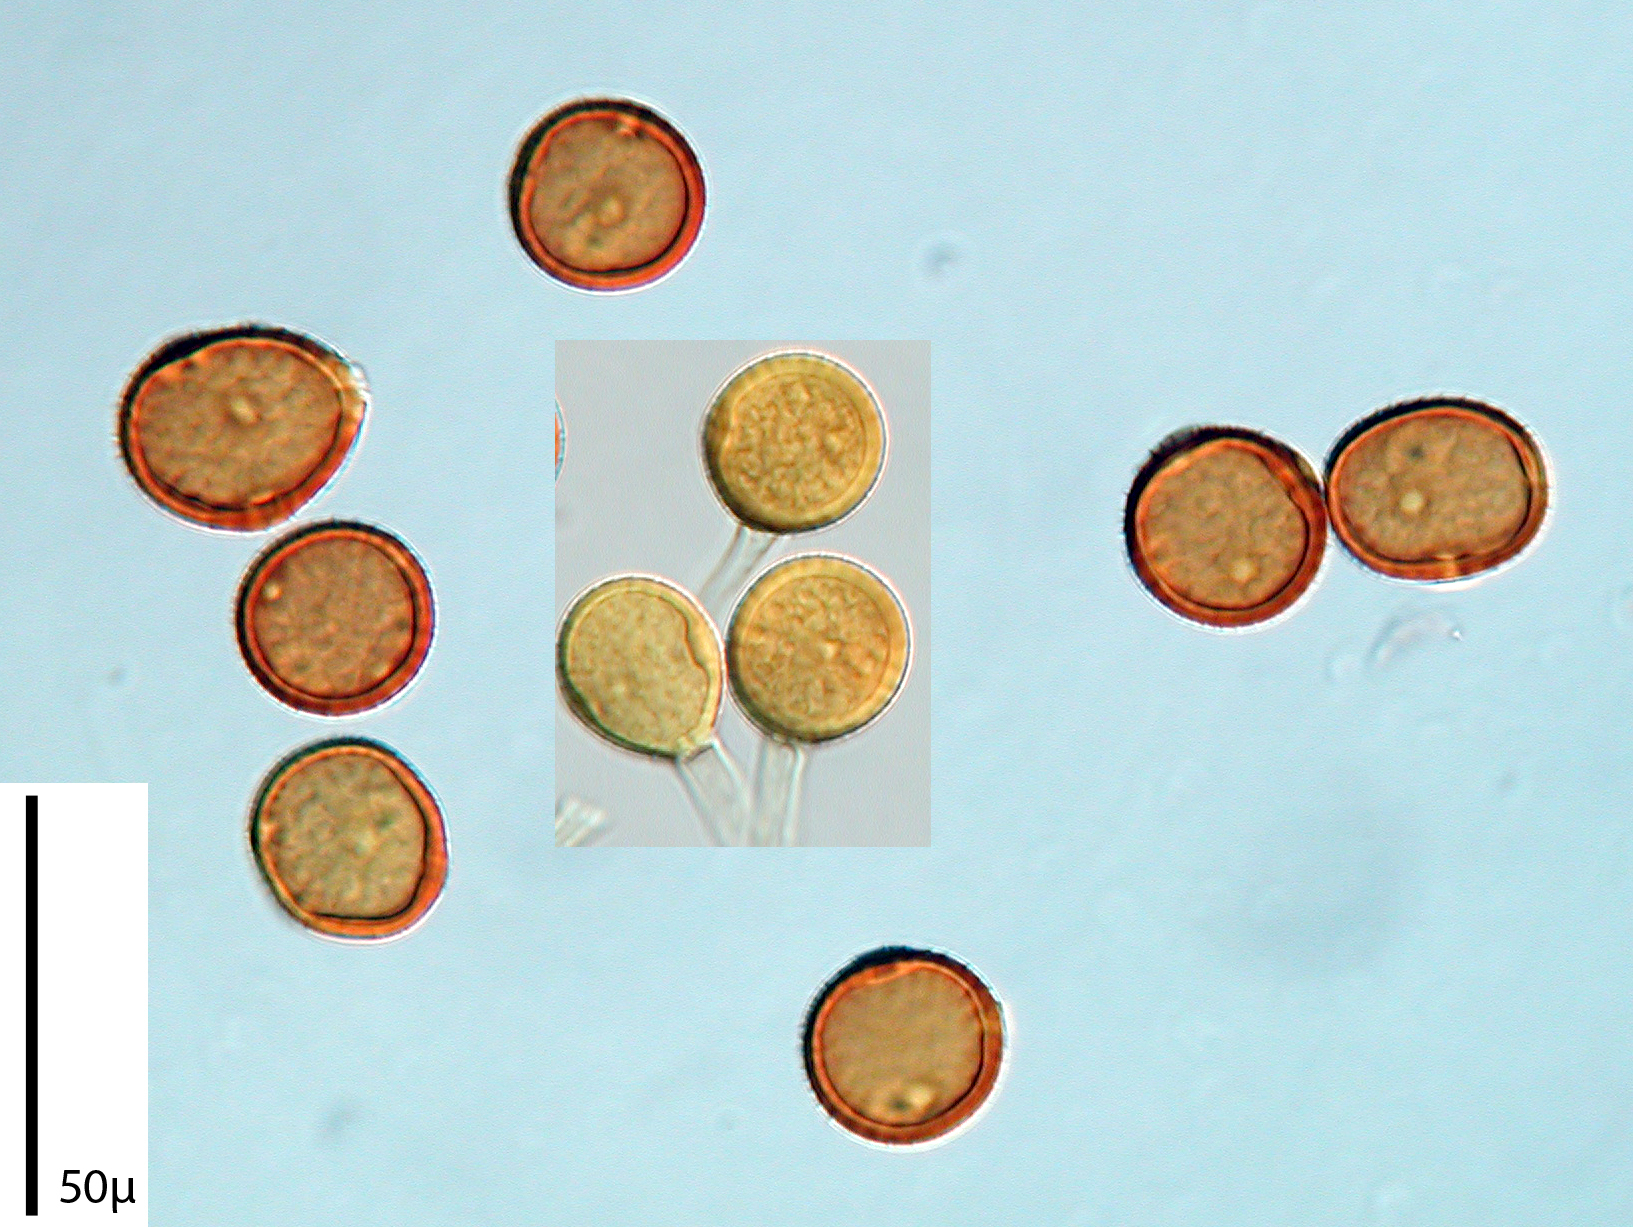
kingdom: Fungi
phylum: Basidiomycota
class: Pucciniomycetes
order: Pucciniales
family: Pucciniaceae
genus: Uromyces
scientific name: Uromyces trifolii-repentis
